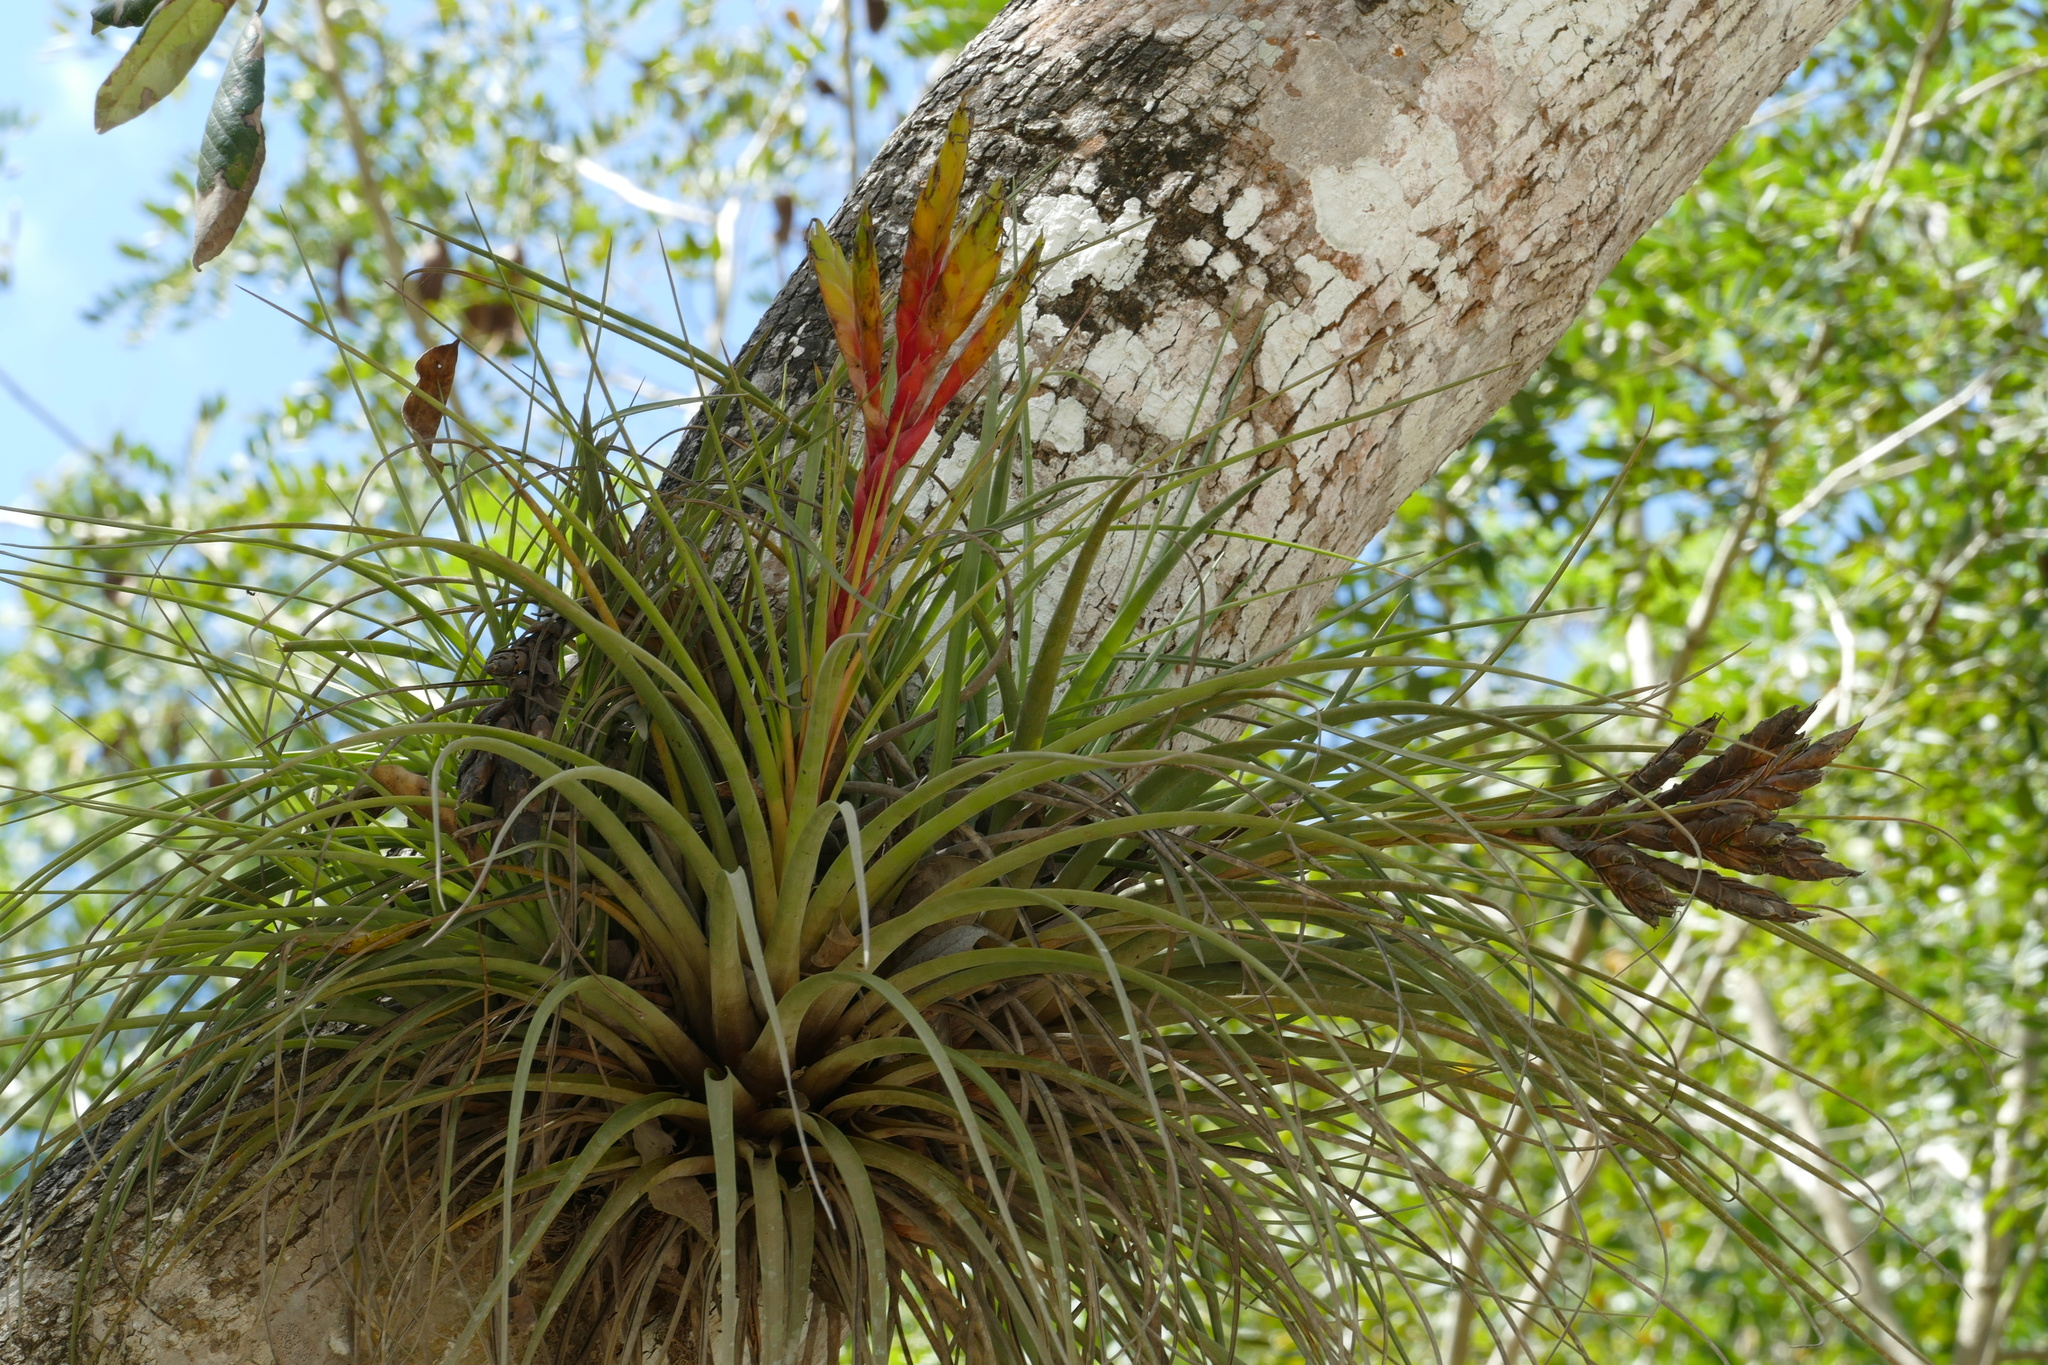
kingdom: Plantae
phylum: Tracheophyta
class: Liliopsida
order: Poales
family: Bromeliaceae
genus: Tillandsia
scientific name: Tillandsia fasciculata
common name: Giant airplant
